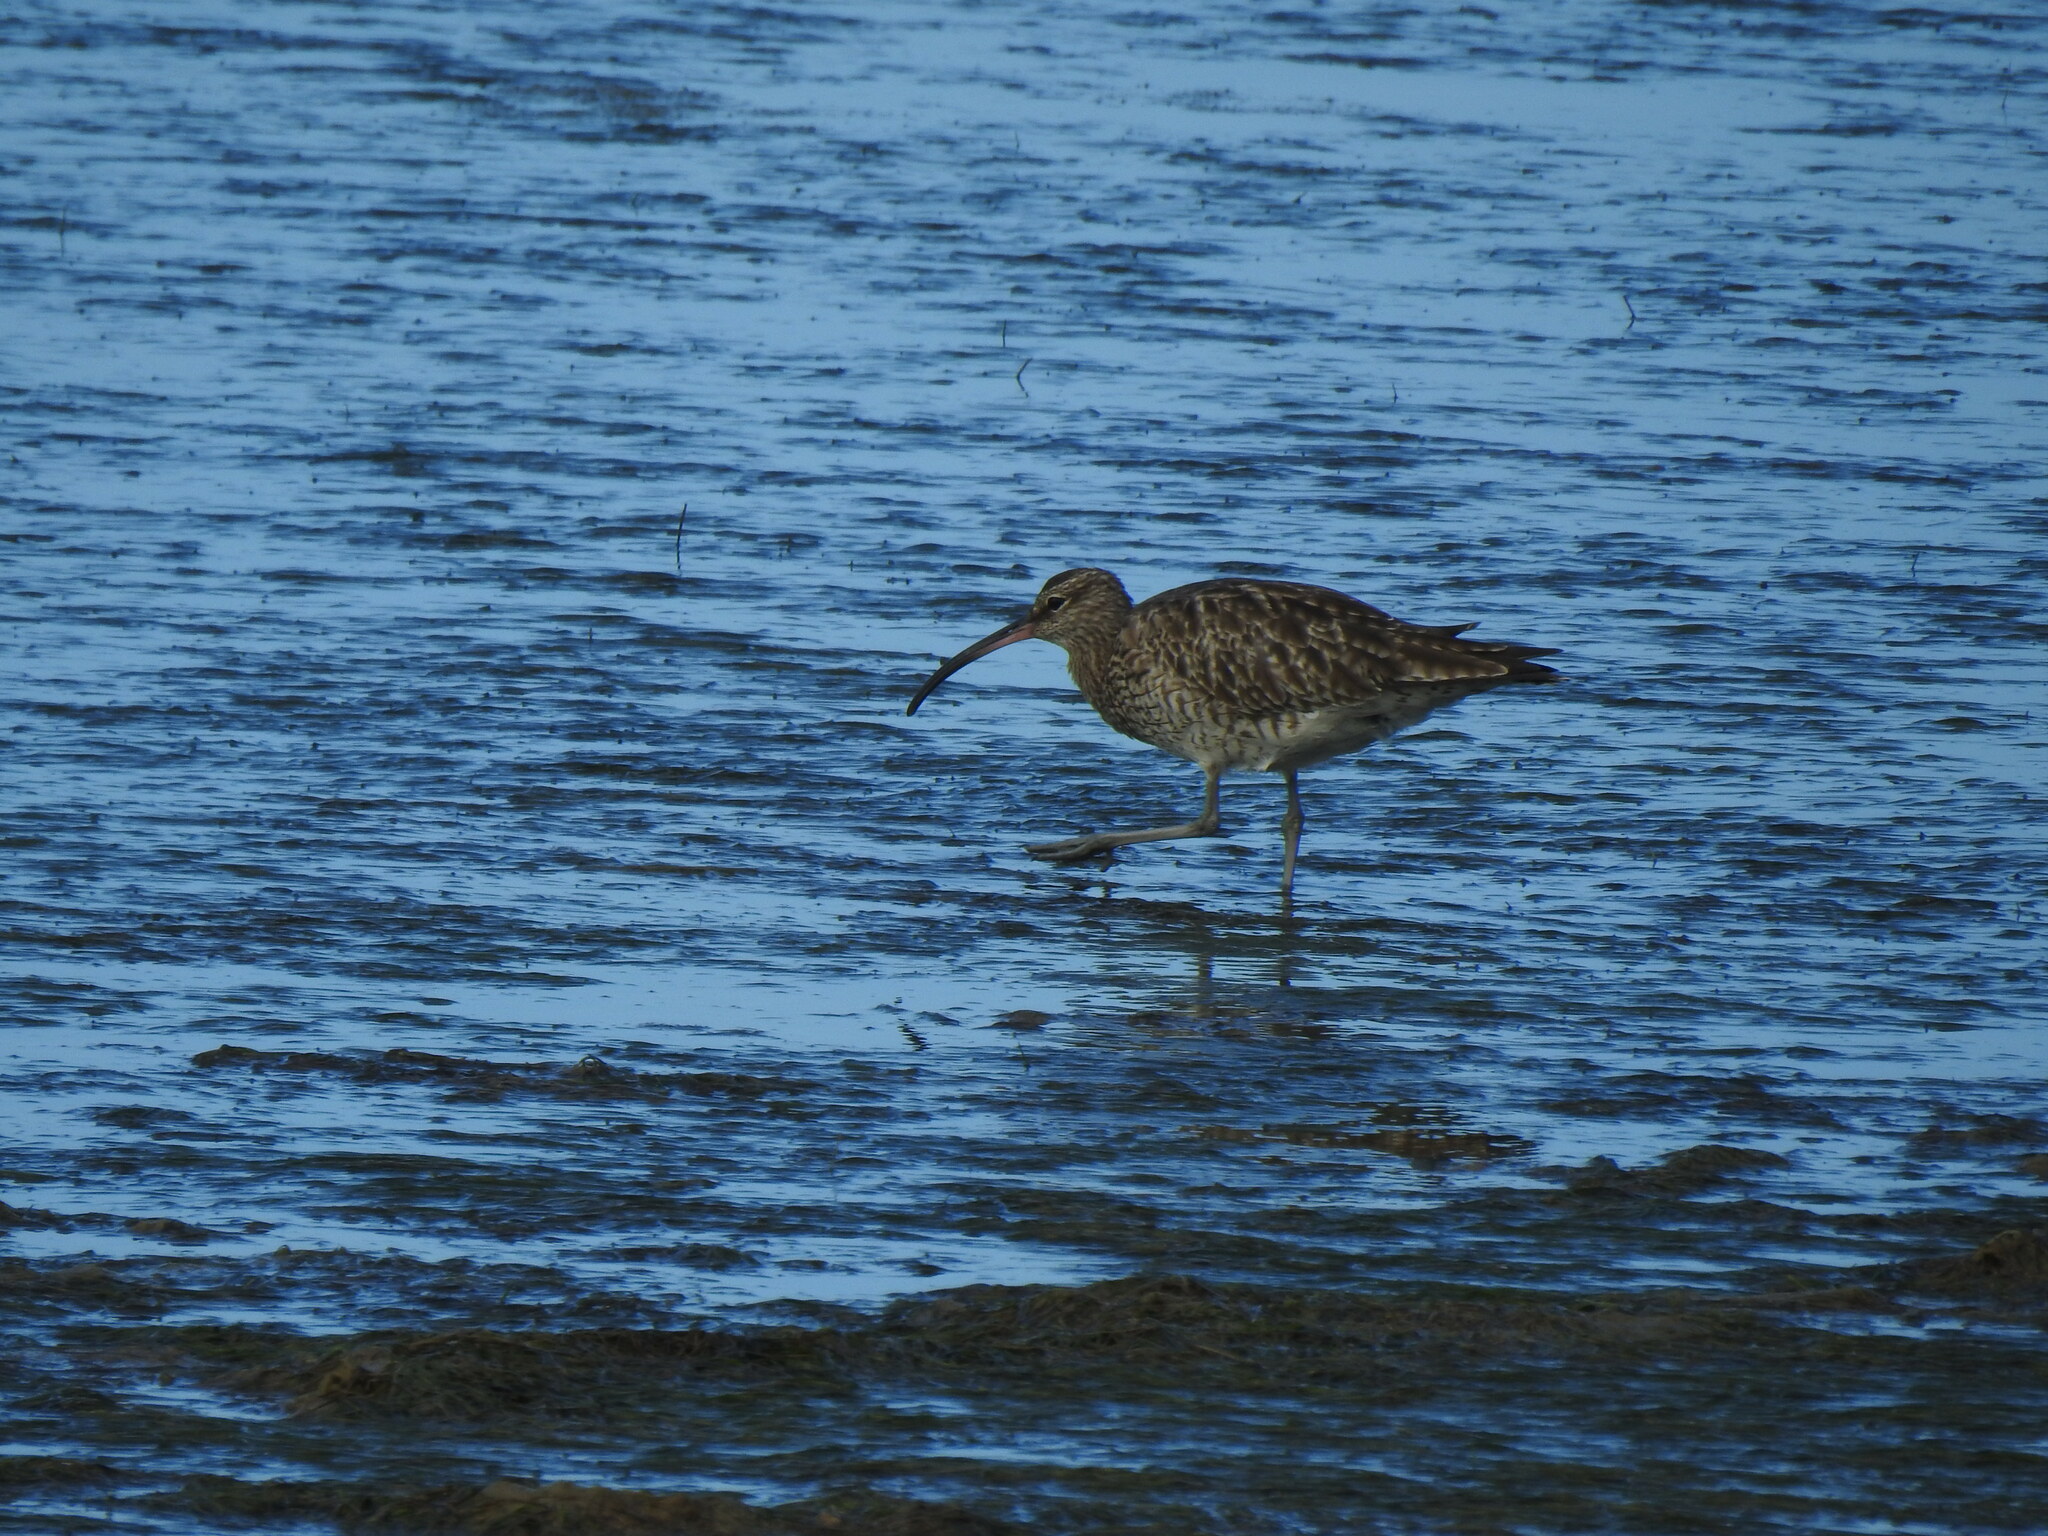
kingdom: Animalia
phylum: Chordata
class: Aves
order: Charadriiformes
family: Scolopacidae
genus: Numenius
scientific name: Numenius phaeopus
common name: Whimbrel
